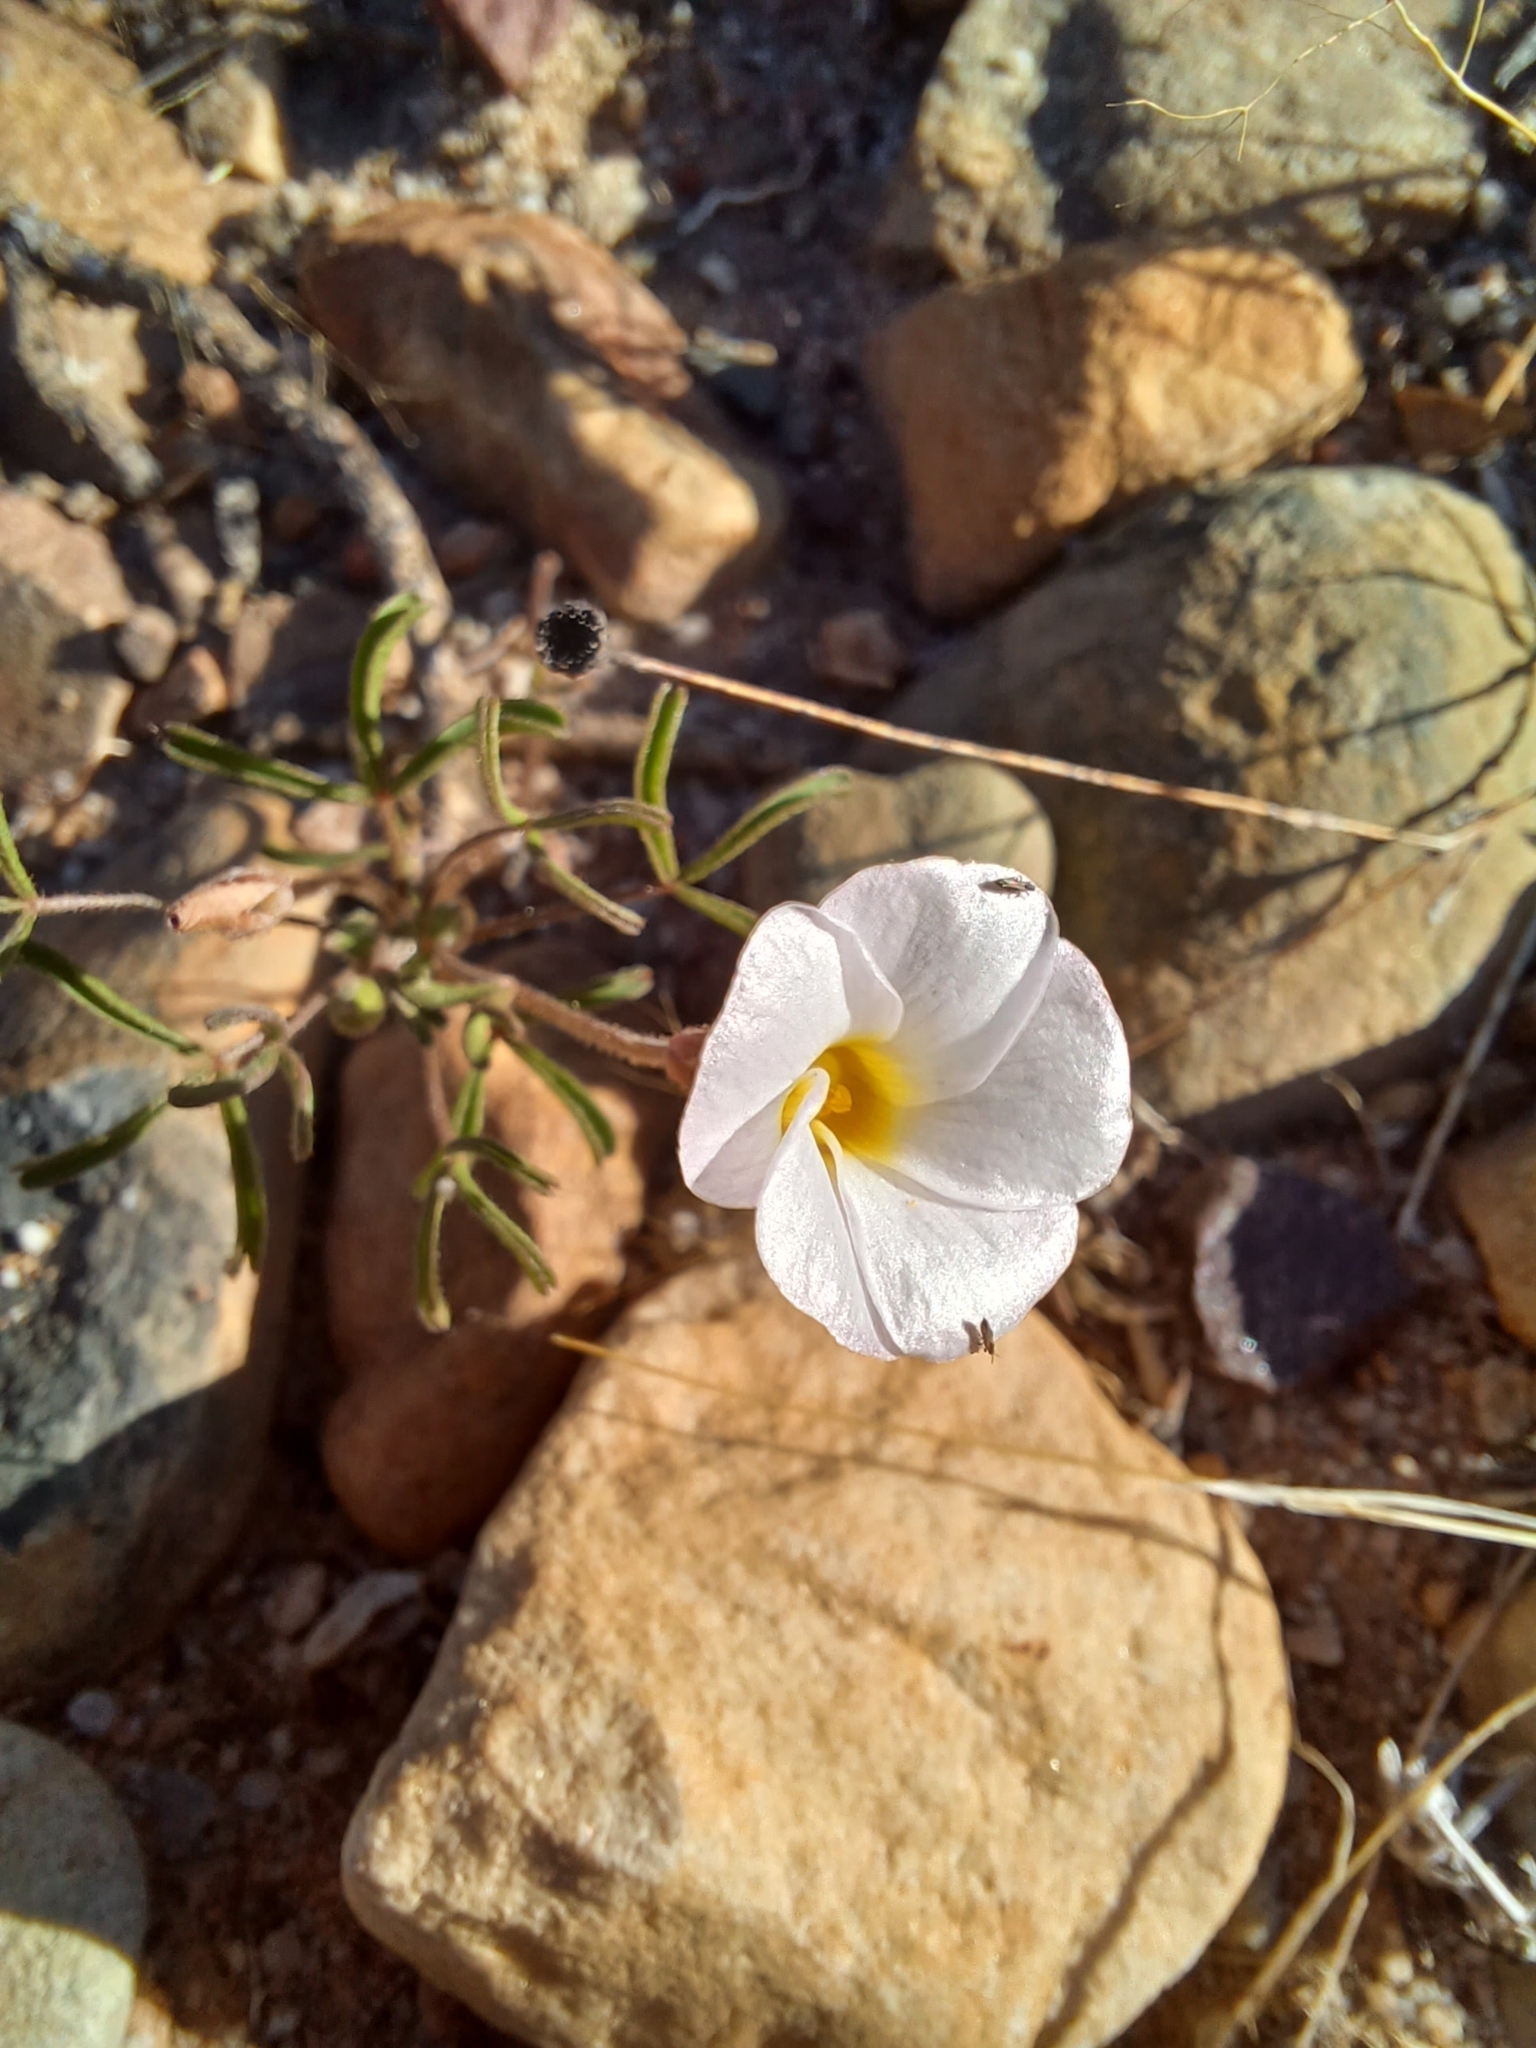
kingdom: Plantae
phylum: Tracheophyta
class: Magnoliopsida
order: Oxalidales
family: Oxalidaceae
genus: Oxalis
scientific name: Oxalis ciliaris
